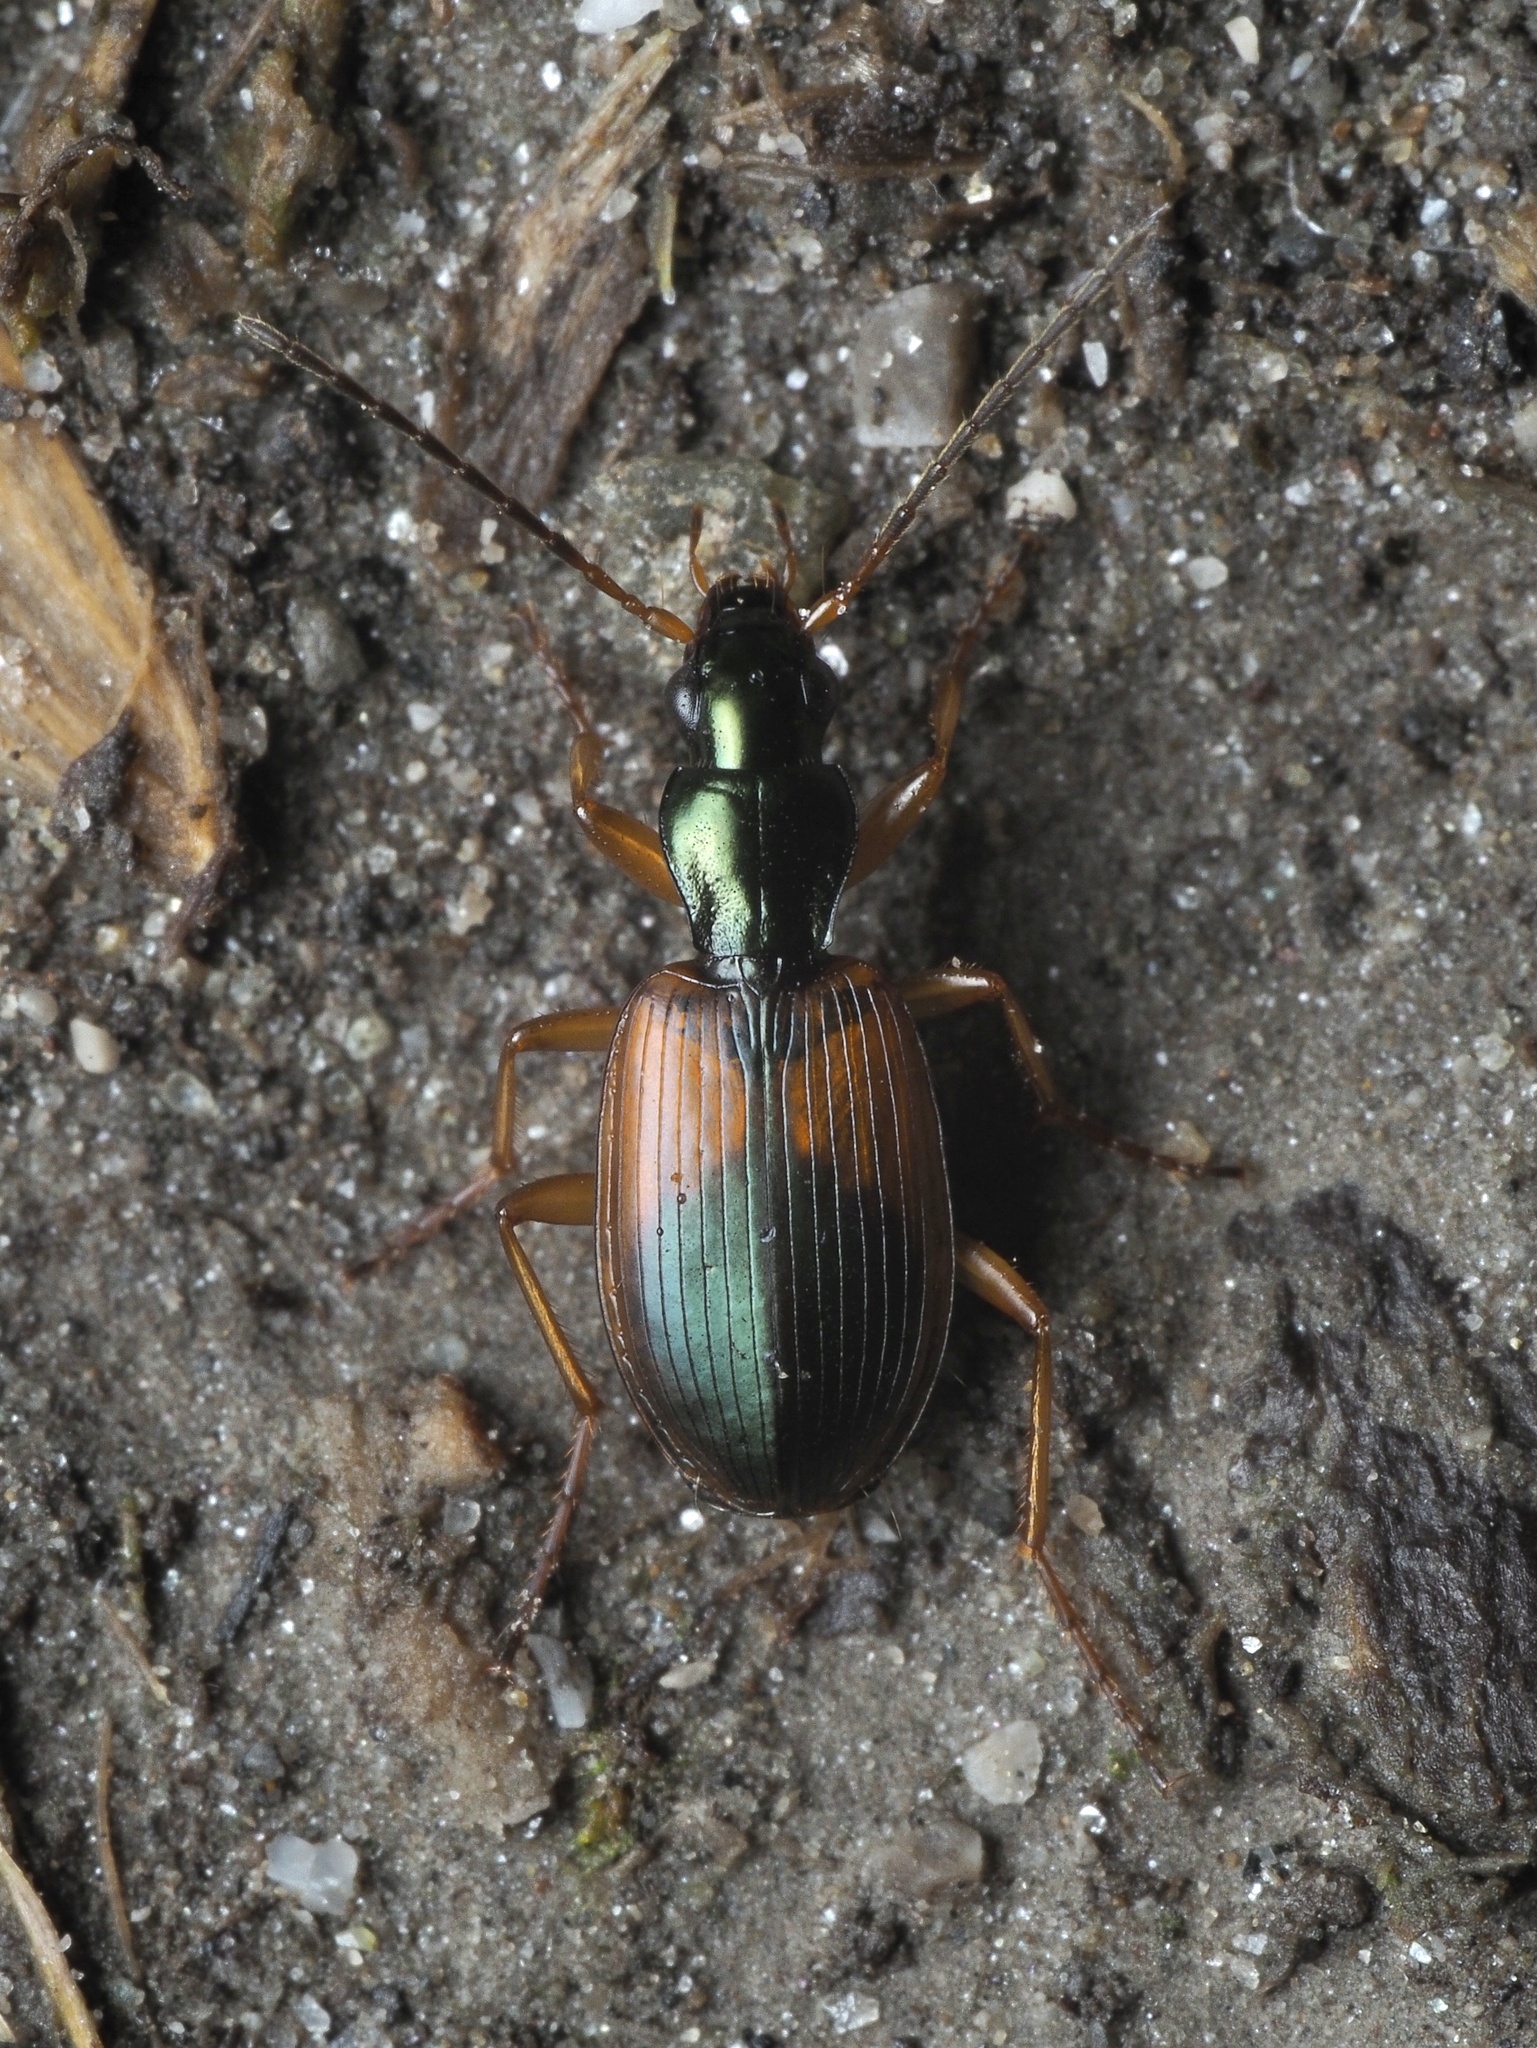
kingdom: Animalia
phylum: Arthropoda
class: Insecta
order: Coleoptera
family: Carabidae
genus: Anchomenus
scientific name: Anchomenus dorsalis
